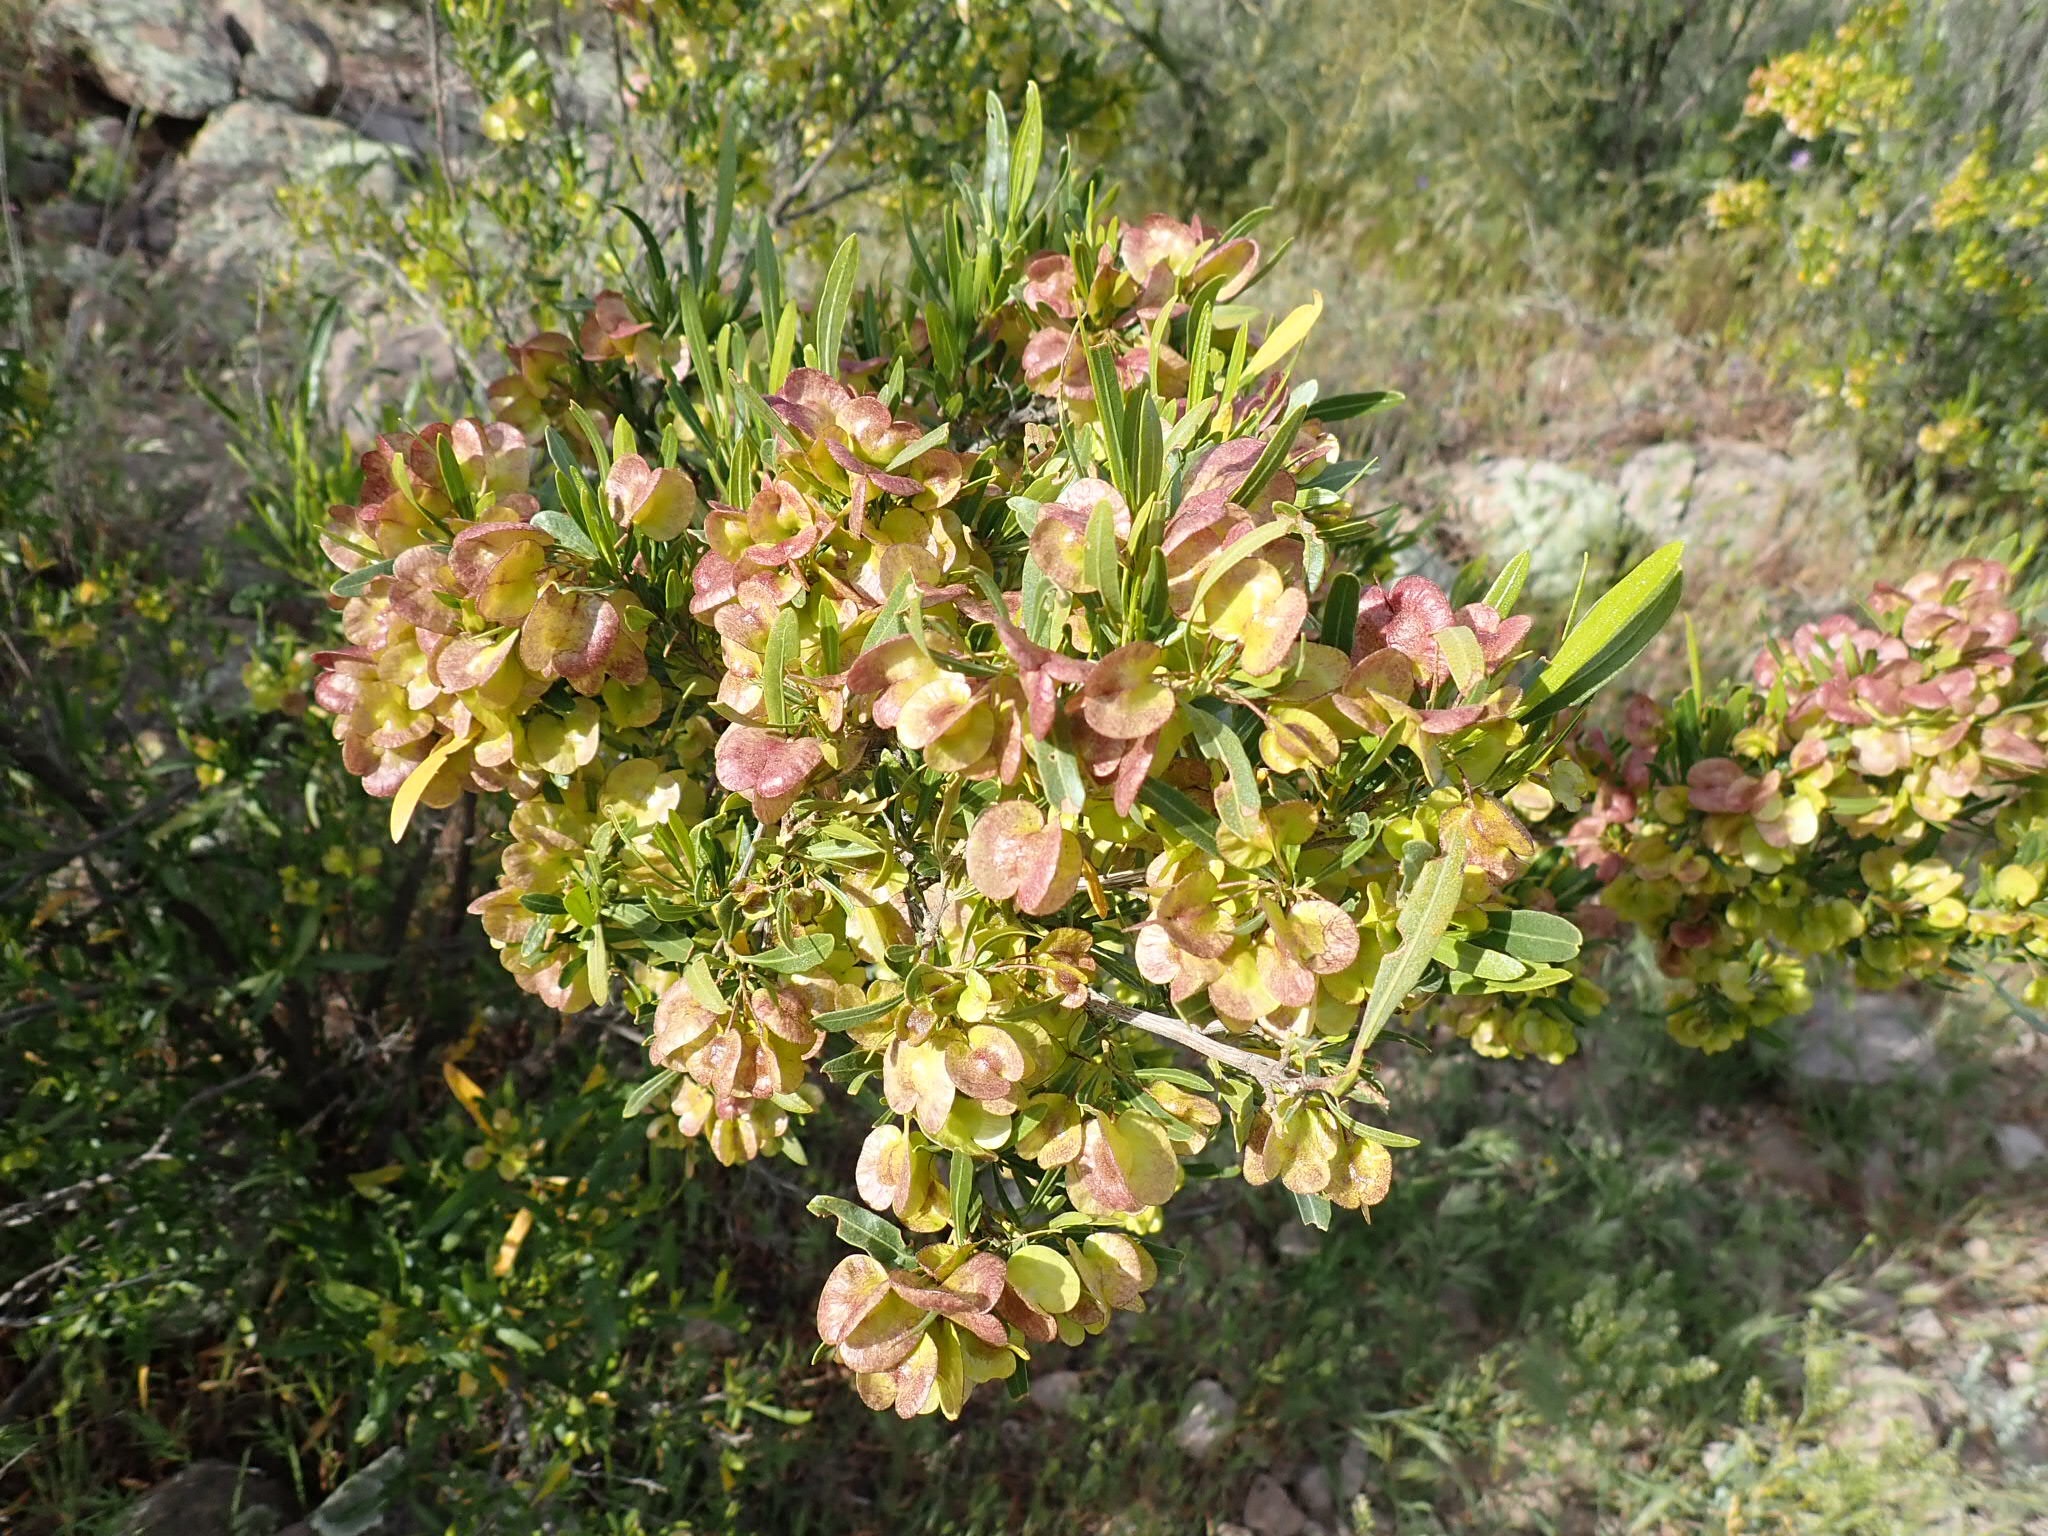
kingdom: Plantae
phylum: Tracheophyta
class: Magnoliopsida
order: Sapindales
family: Sapindaceae
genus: Dodonaea
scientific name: Dodonaea viscosa
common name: Hopbush
